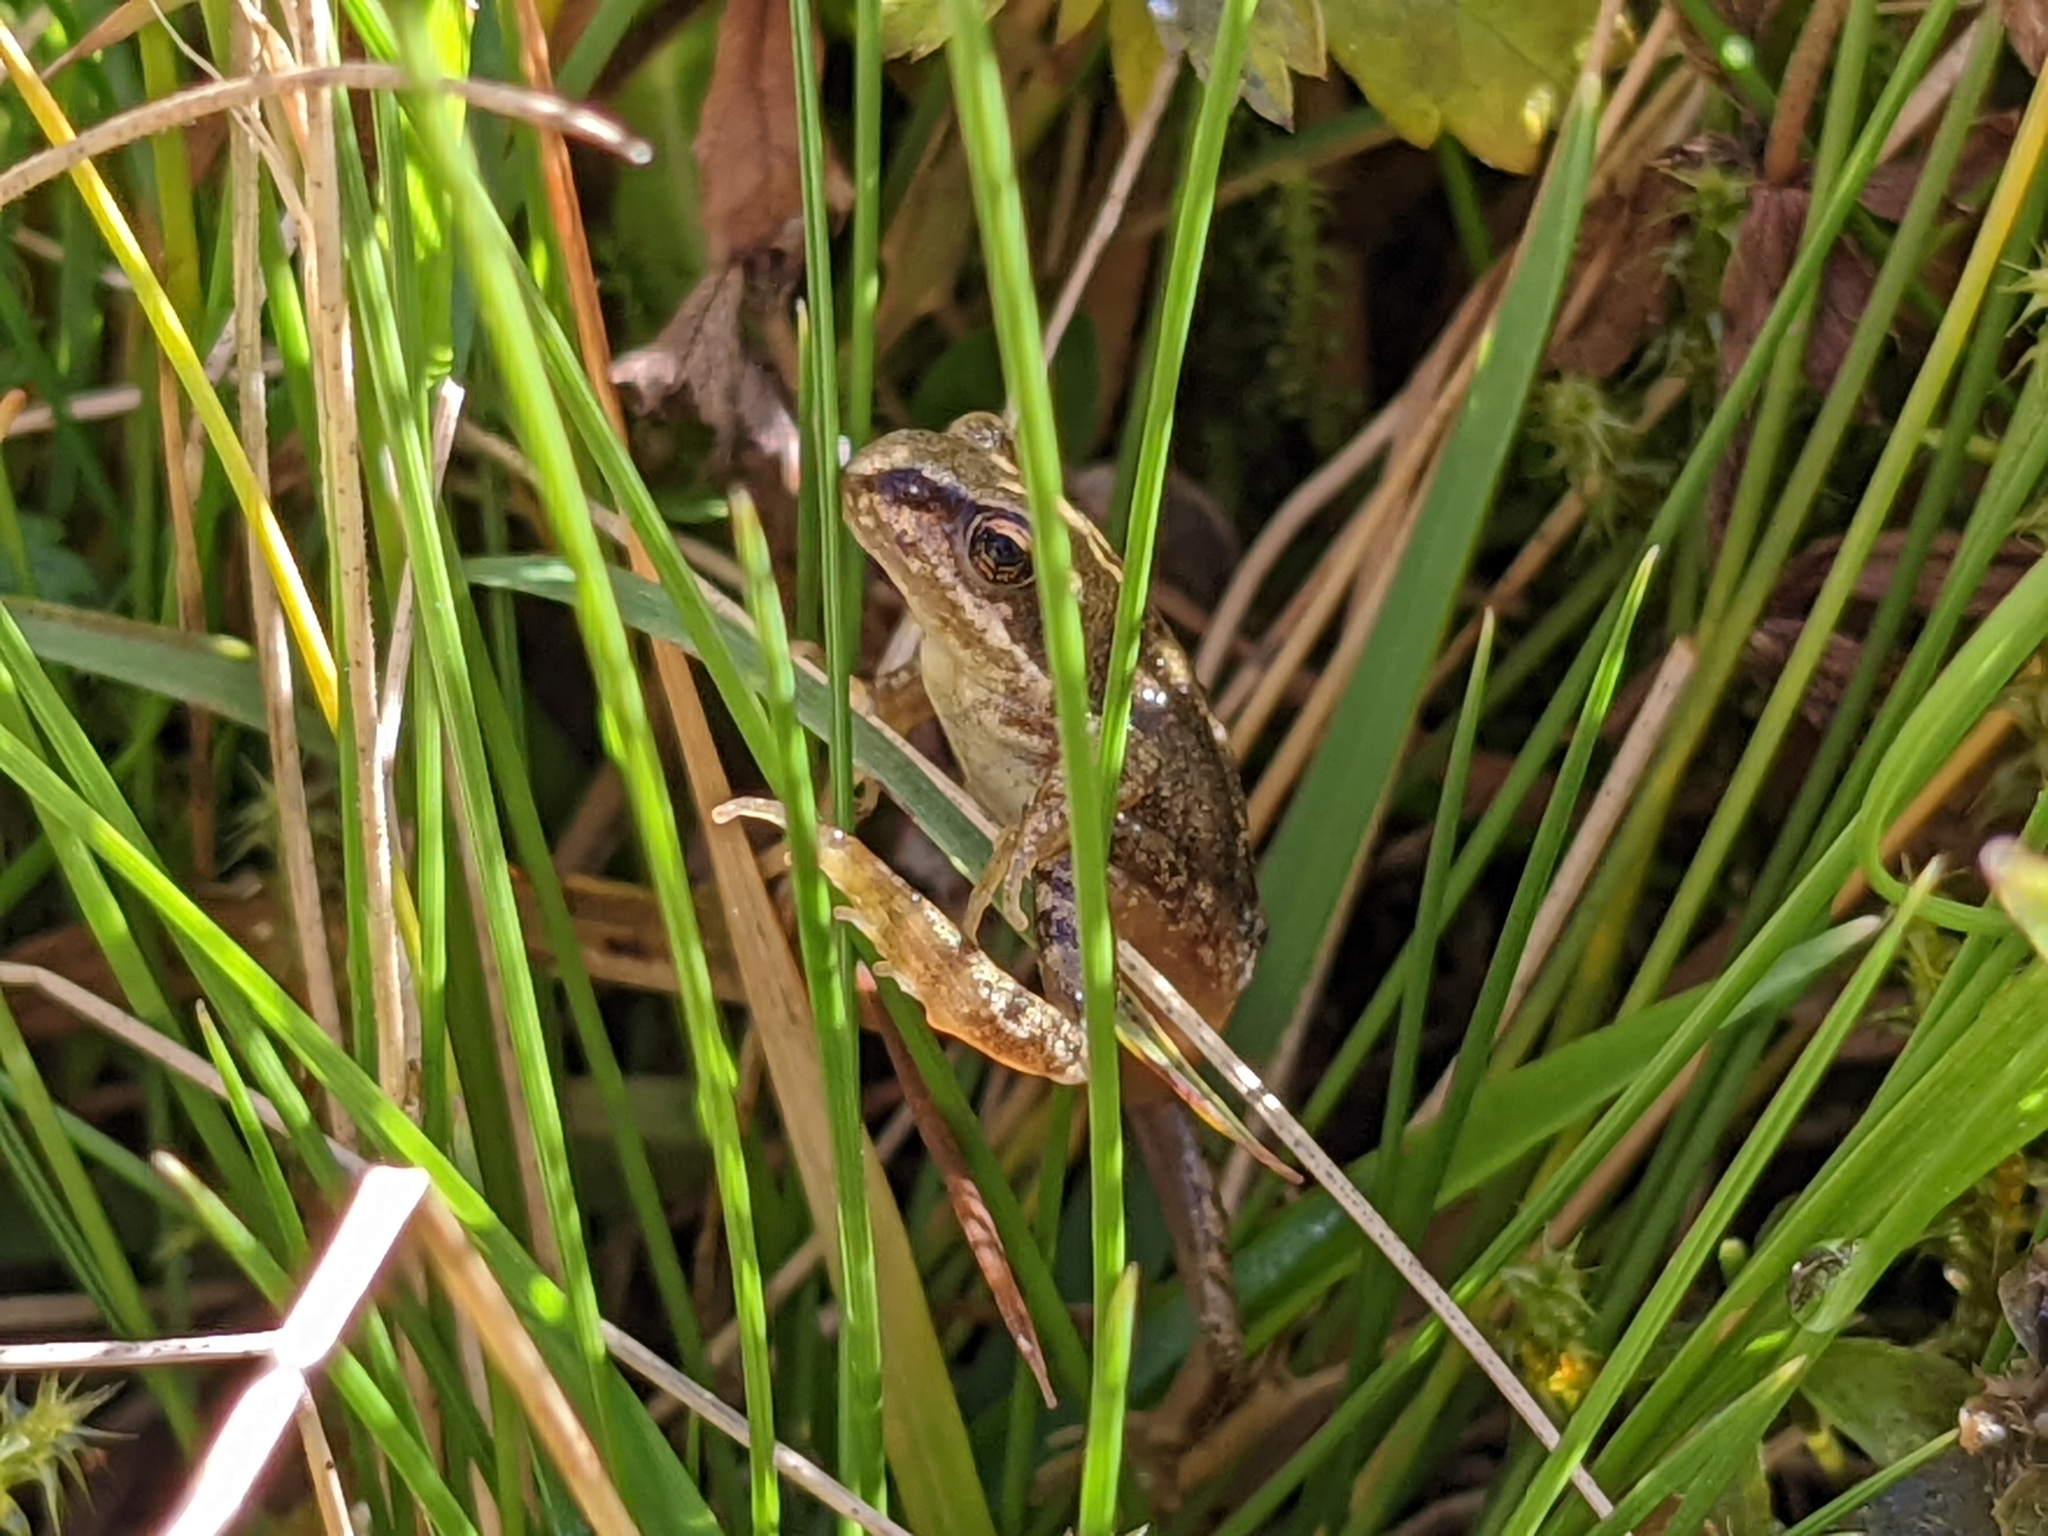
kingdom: Animalia
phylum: Chordata
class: Amphibia
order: Anura
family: Ranidae
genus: Rana
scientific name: Rana temporaria
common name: Common frog
